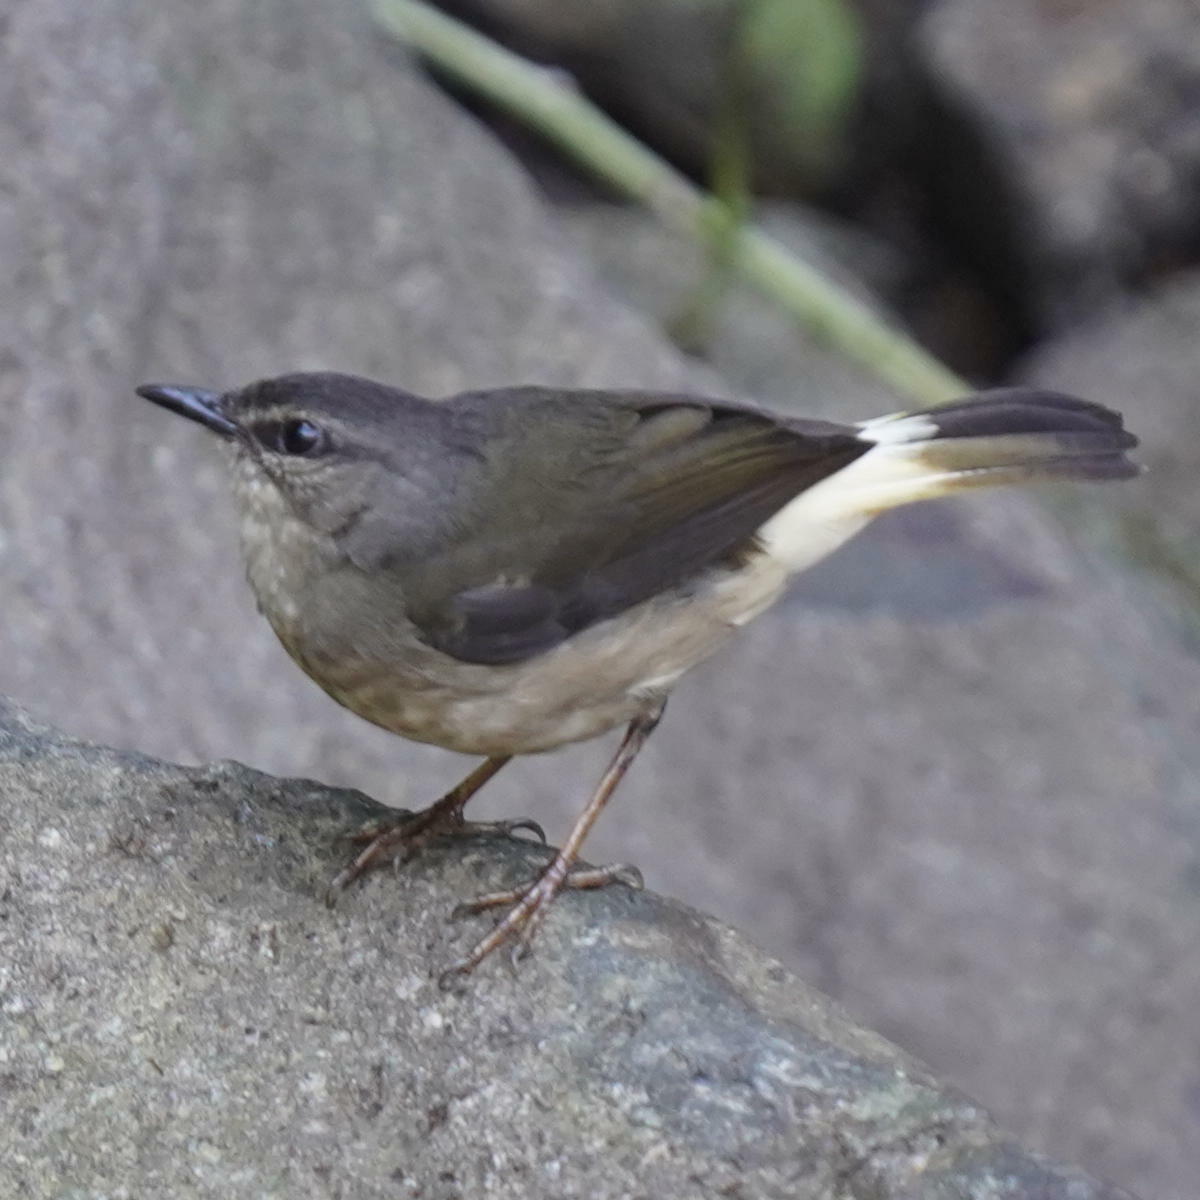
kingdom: Animalia
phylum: Chordata
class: Aves
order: Passeriformes
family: Parulidae
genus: Myiothlypis
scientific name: Myiothlypis fulvicauda
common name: Buff-rumped warbler
